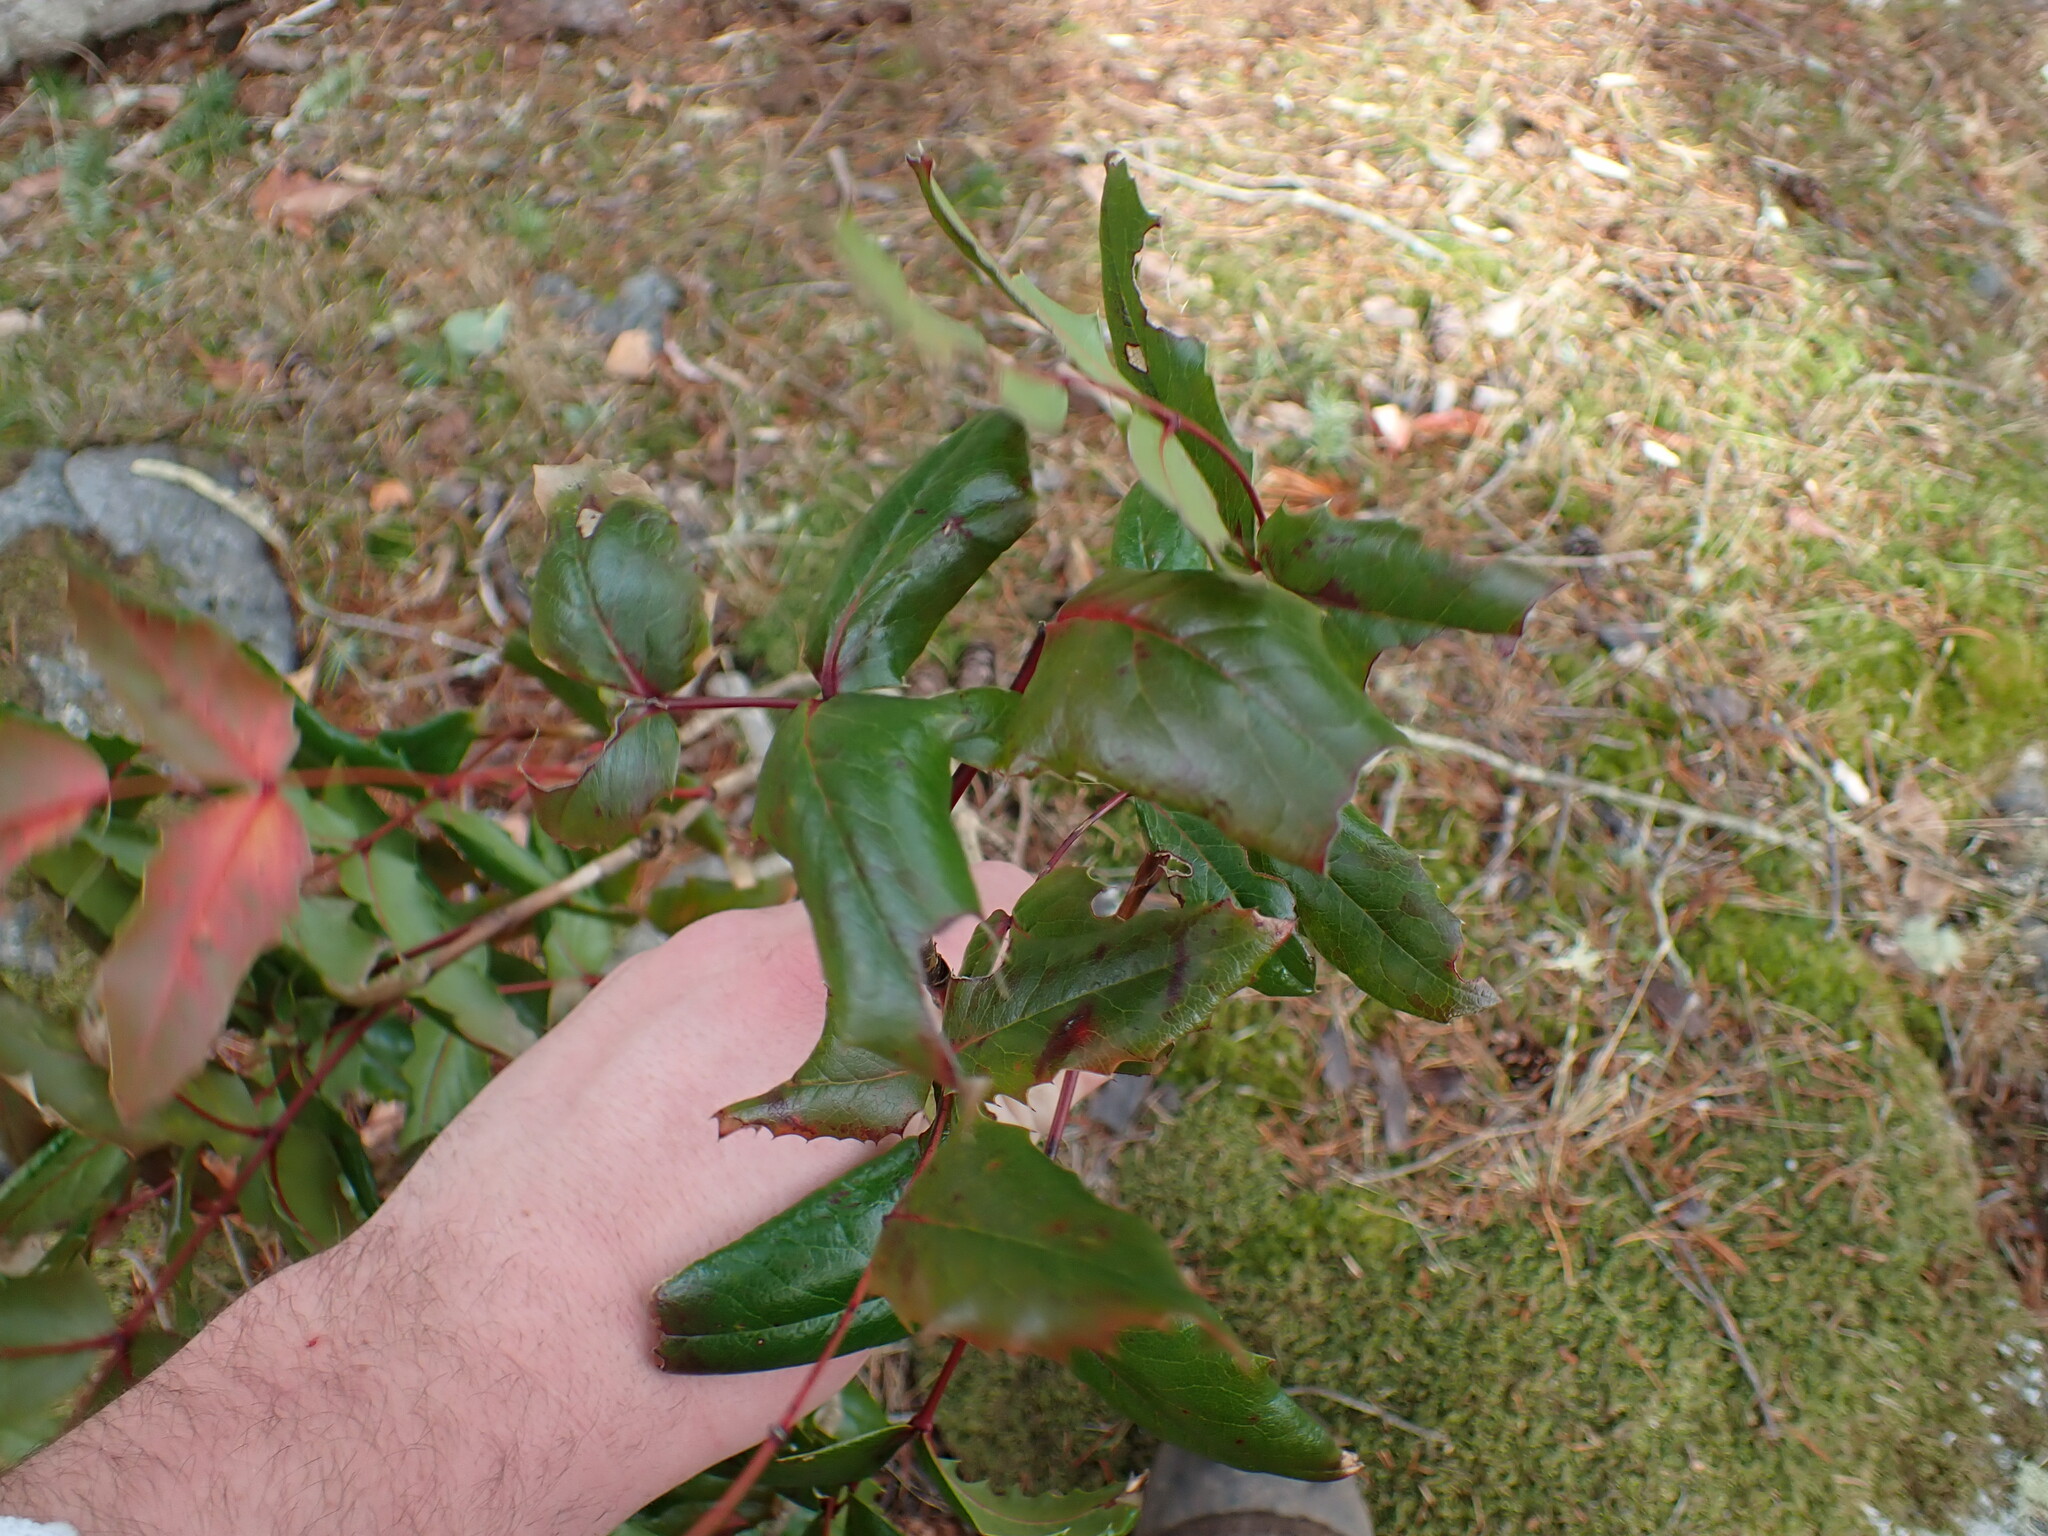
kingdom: Plantae
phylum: Tracheophyta
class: Magnoliopsida
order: Ranunculales
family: Berberidaceae
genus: Mahonia
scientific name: Mahonia aquifolium
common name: Oregon-grape
